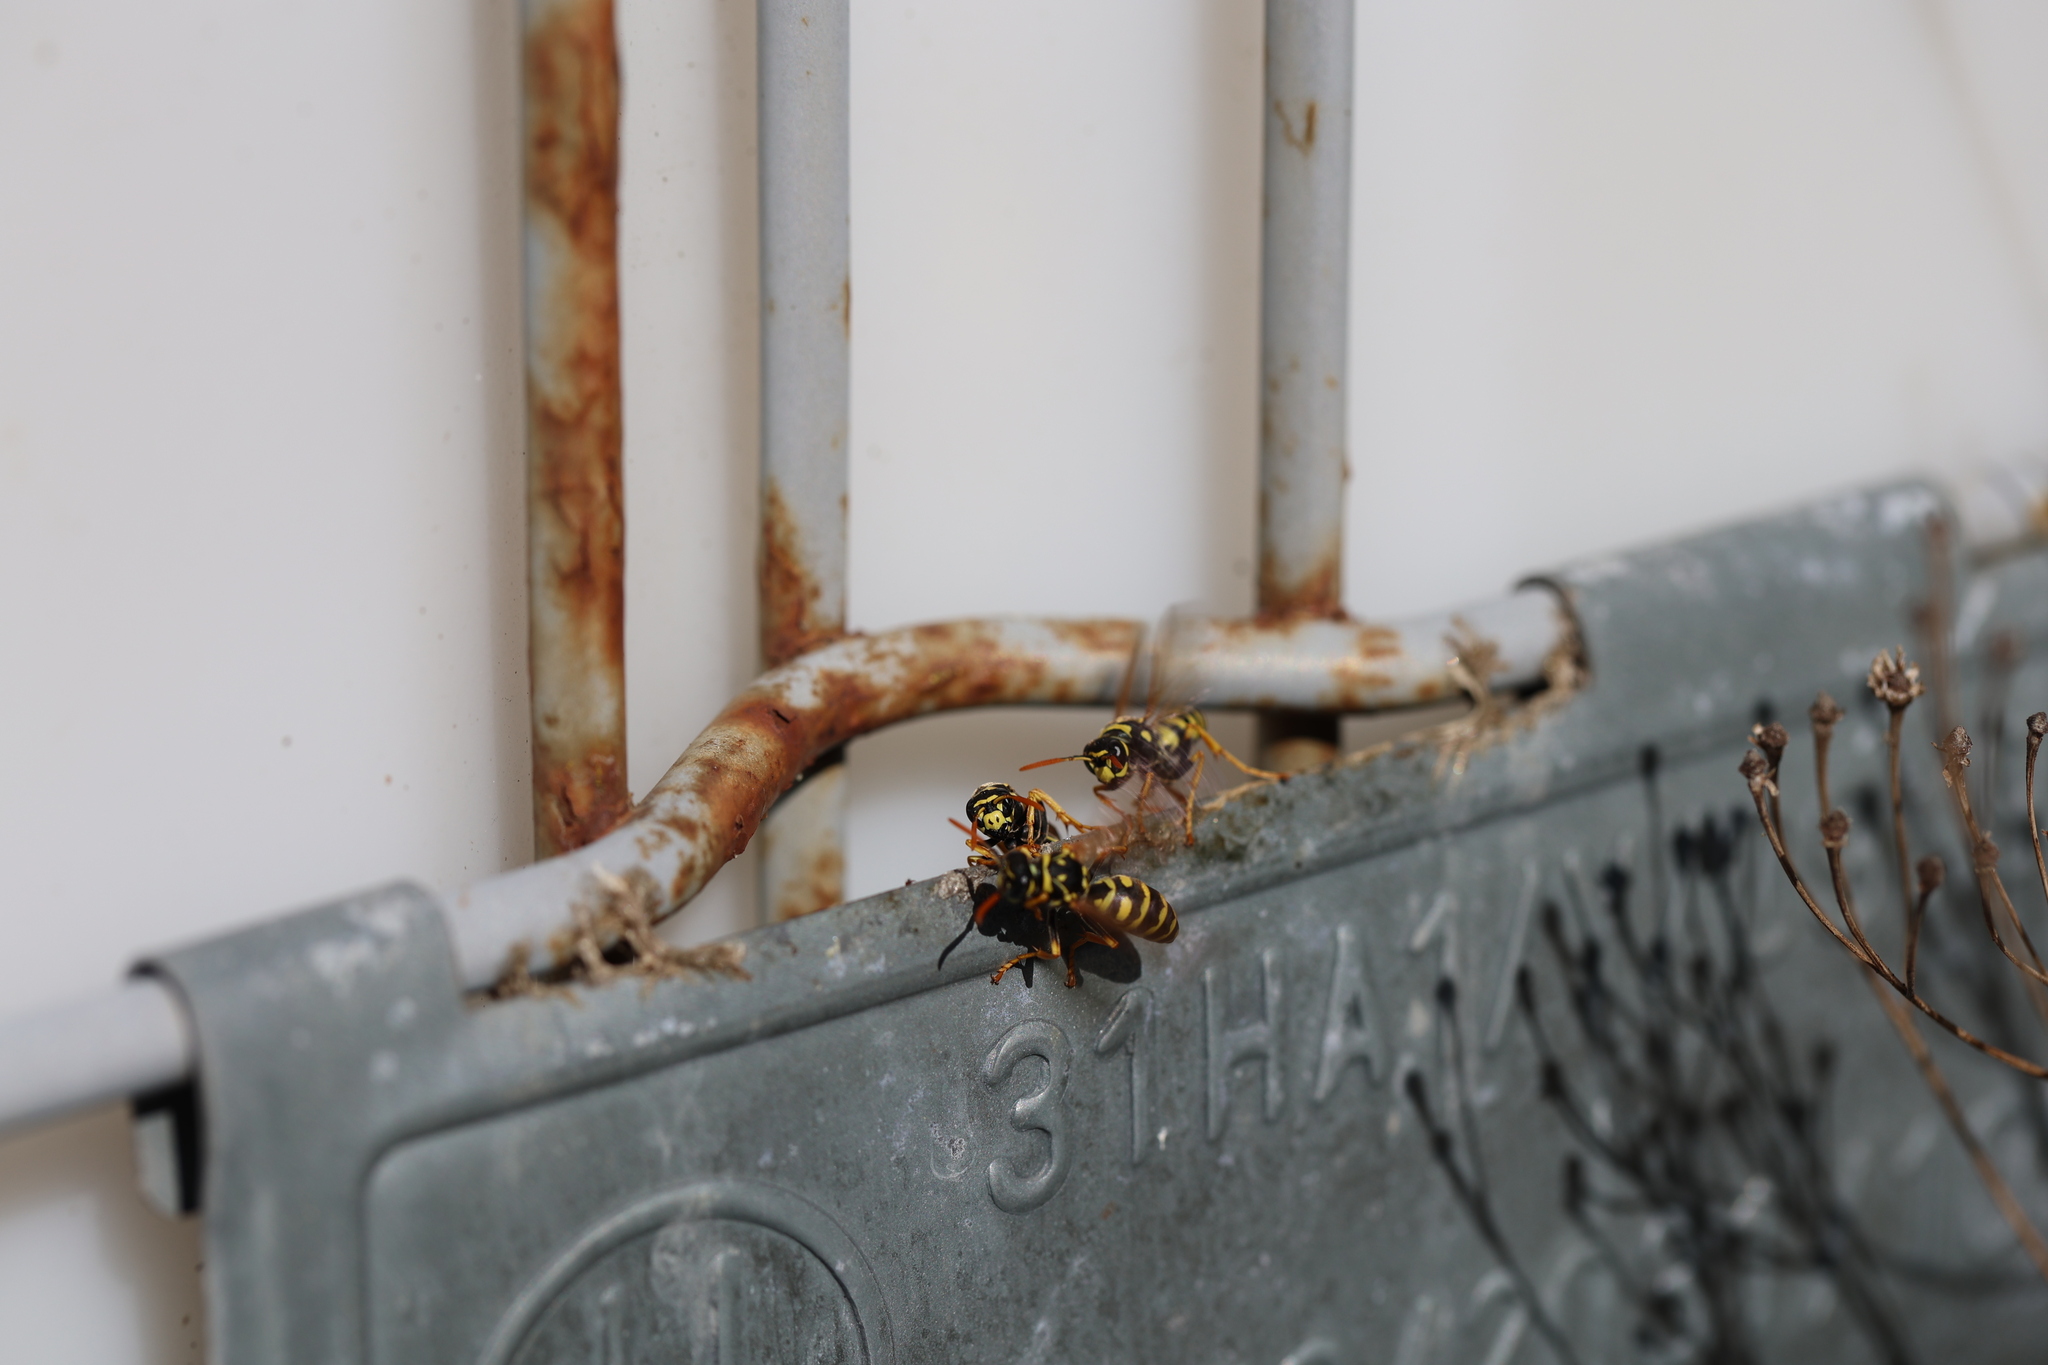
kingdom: Animalia
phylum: Arthropoda
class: Insecta
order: Hymenoptera
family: Eumenidae
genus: Polistes
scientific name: Polistes dominula
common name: Paper wasp
